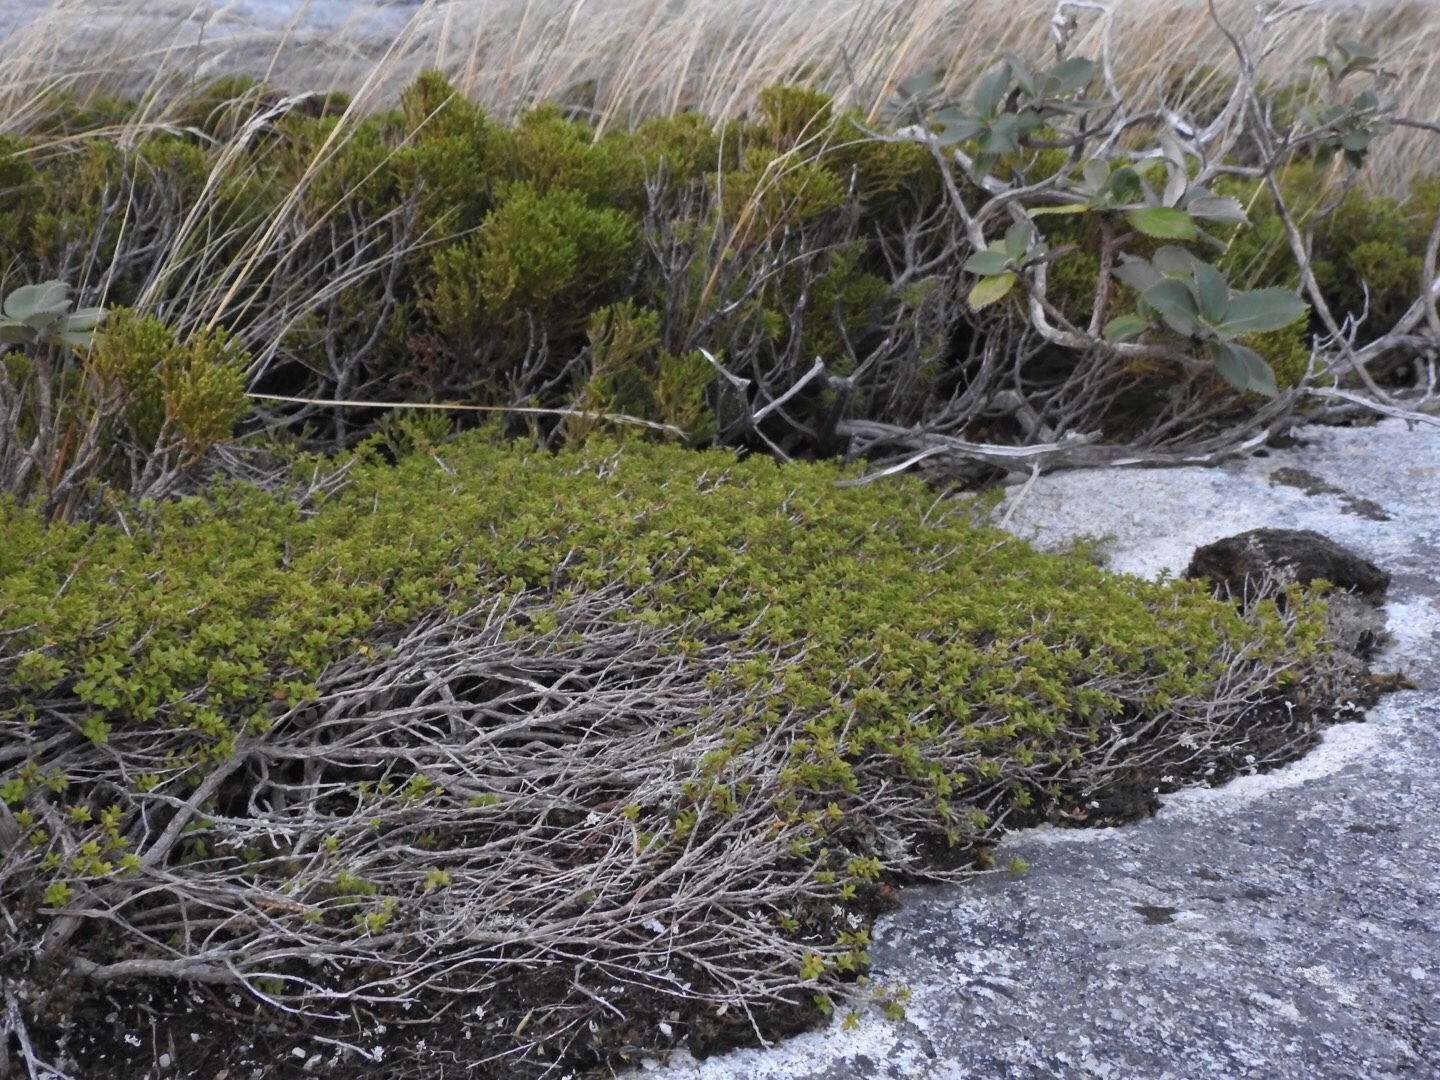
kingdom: Plantae
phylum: Tracheophyta
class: Magnoliopsida
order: Myrtales
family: Myrtaceae
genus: Leptospermum
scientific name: Leptospermum scoparium
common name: Broom tea-tree
